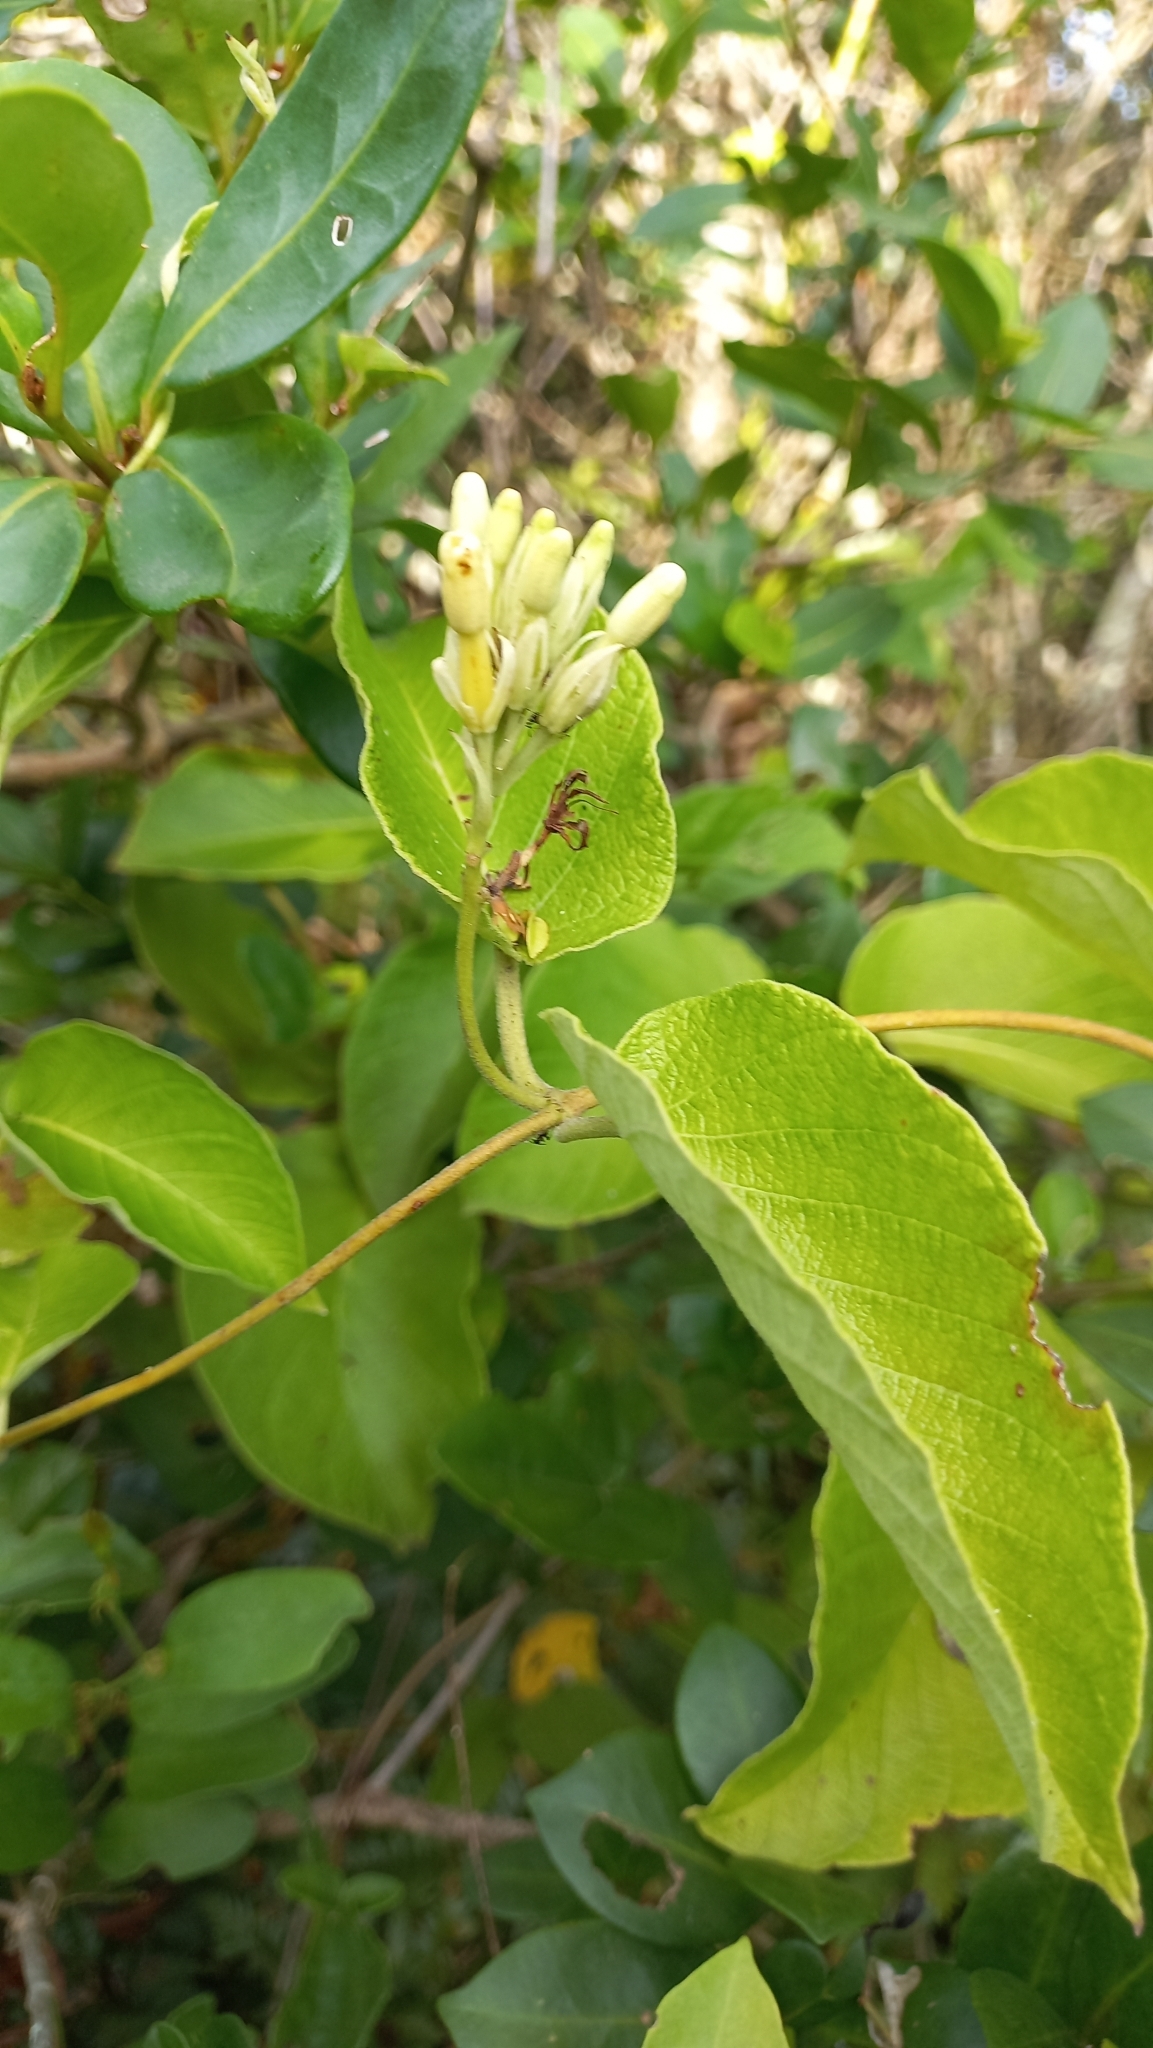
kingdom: Plantae
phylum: Tracheophyta
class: Magnoliopsida
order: Gentianales
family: Apocynaceae
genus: Mandevilla
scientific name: Mandevilla pentlandiana
